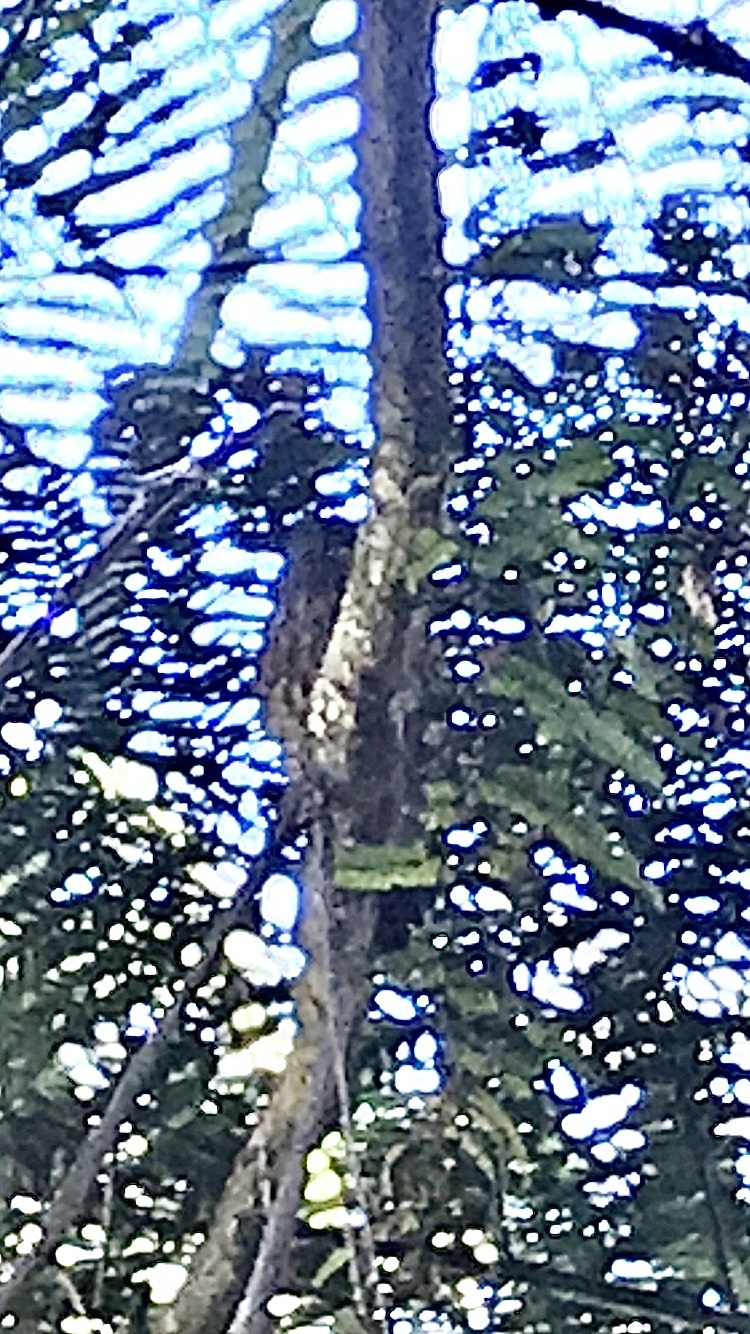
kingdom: Animalia
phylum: Chordata
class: Aves
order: Strigiformes
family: Strigidae
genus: Ninox
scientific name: Ninox novaeseelandiae
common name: Morepork
